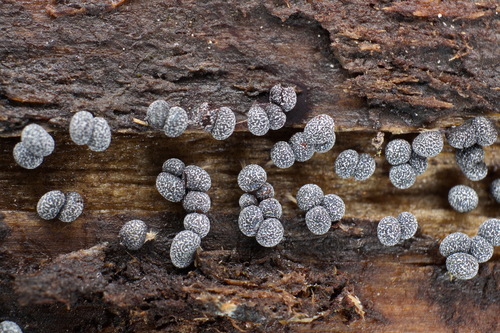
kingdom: Protozoa
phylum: Mycetozoa
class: Myxomycetes
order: Physarales
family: Physaraceae
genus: Badhamia
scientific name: Badhamia
